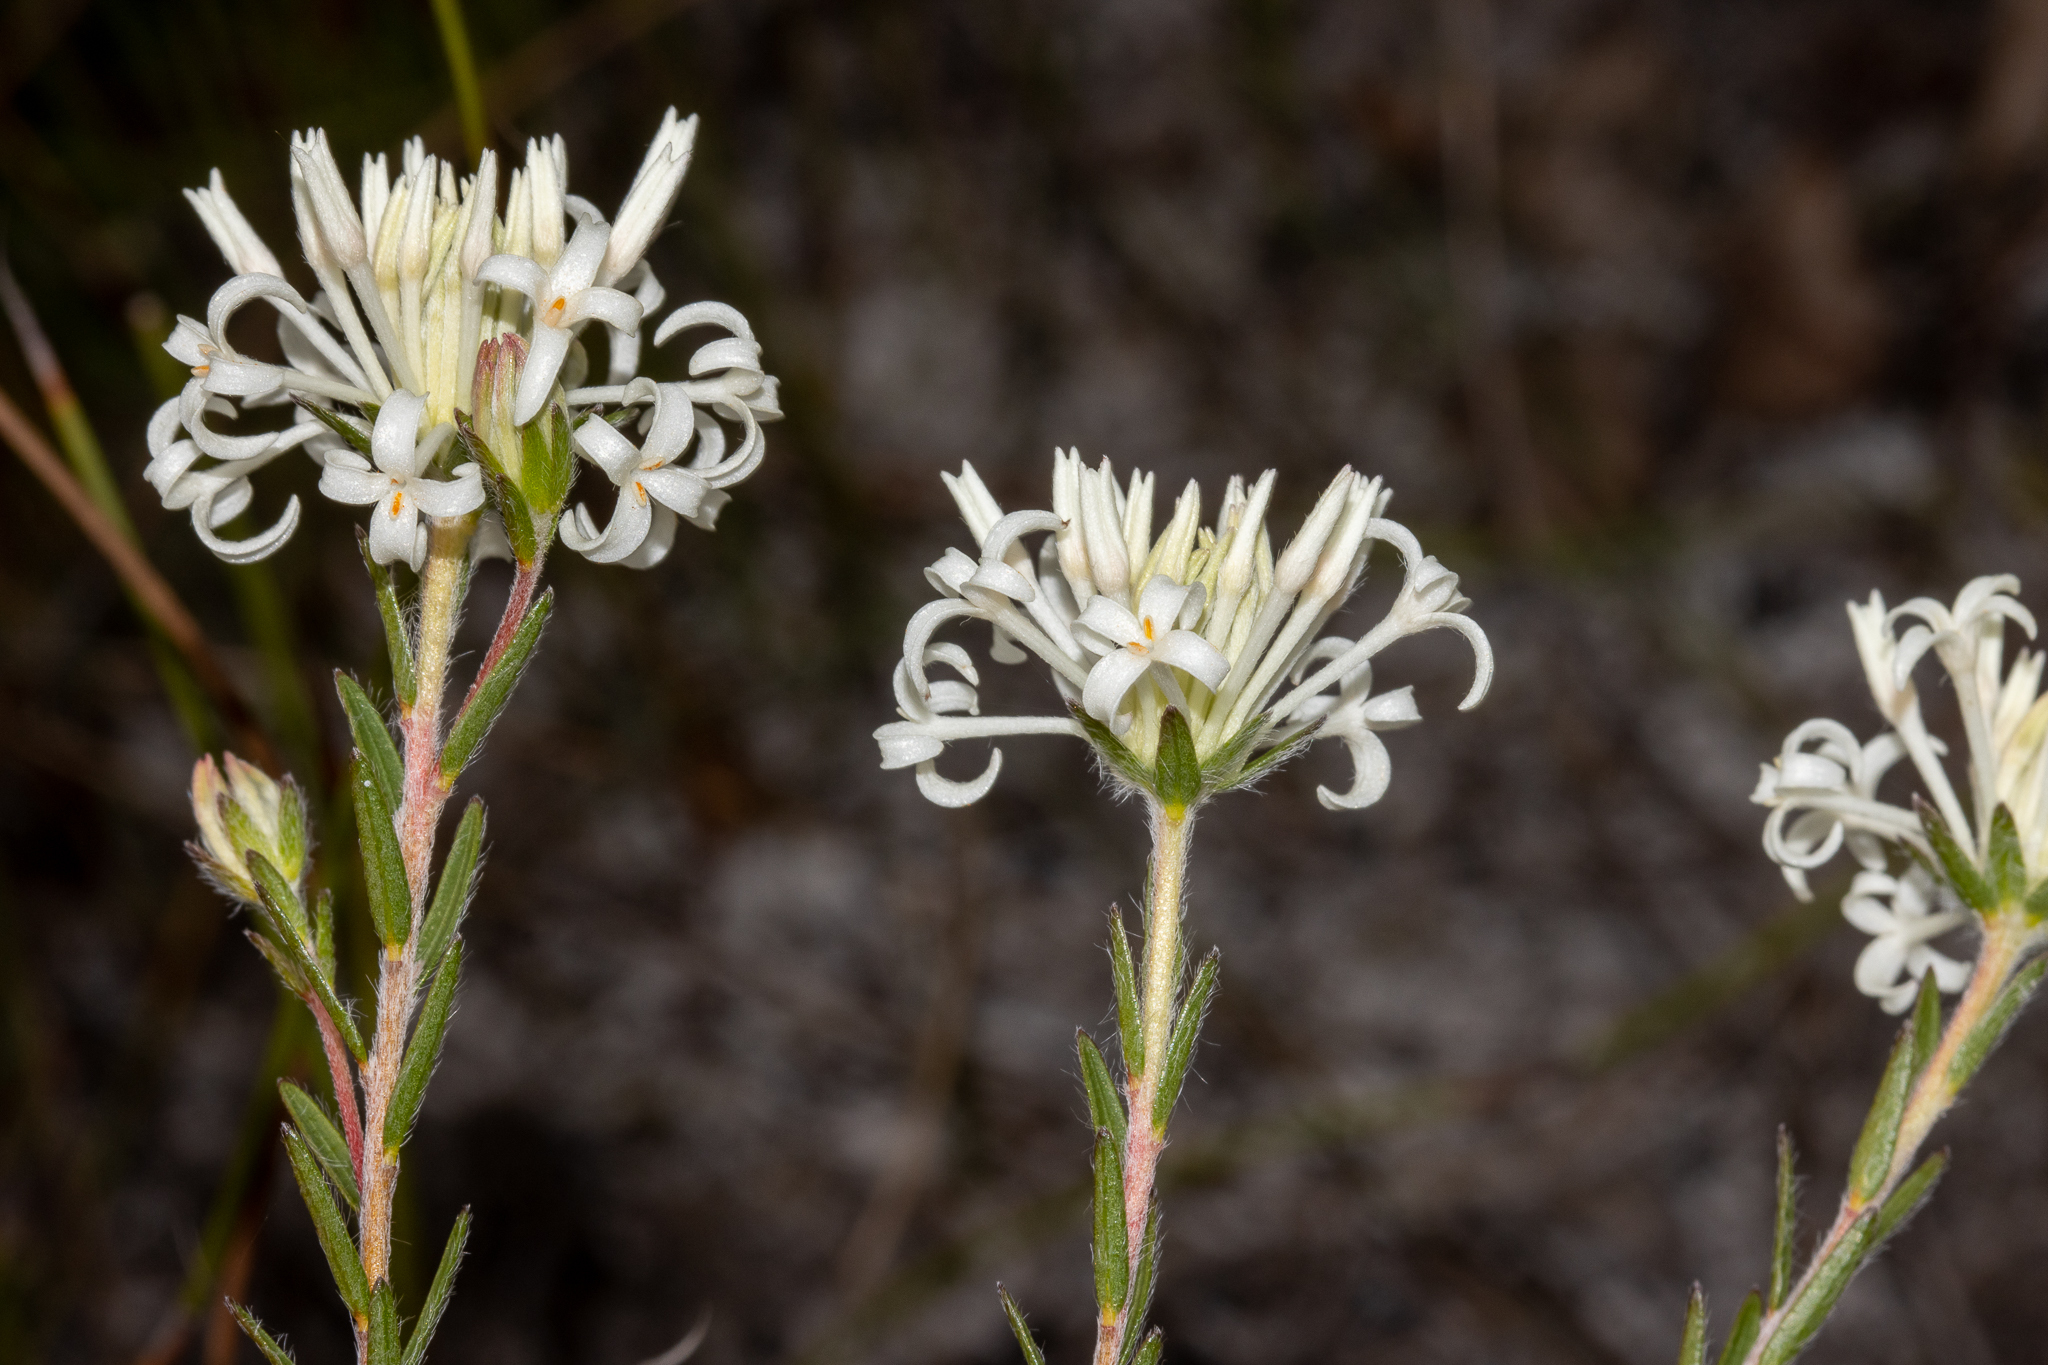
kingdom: Plantae
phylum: Tracheophyta
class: Magnoliopsida
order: Malvales
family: Thymelaeaceae
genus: Pimelea
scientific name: Pimelea longiflora
